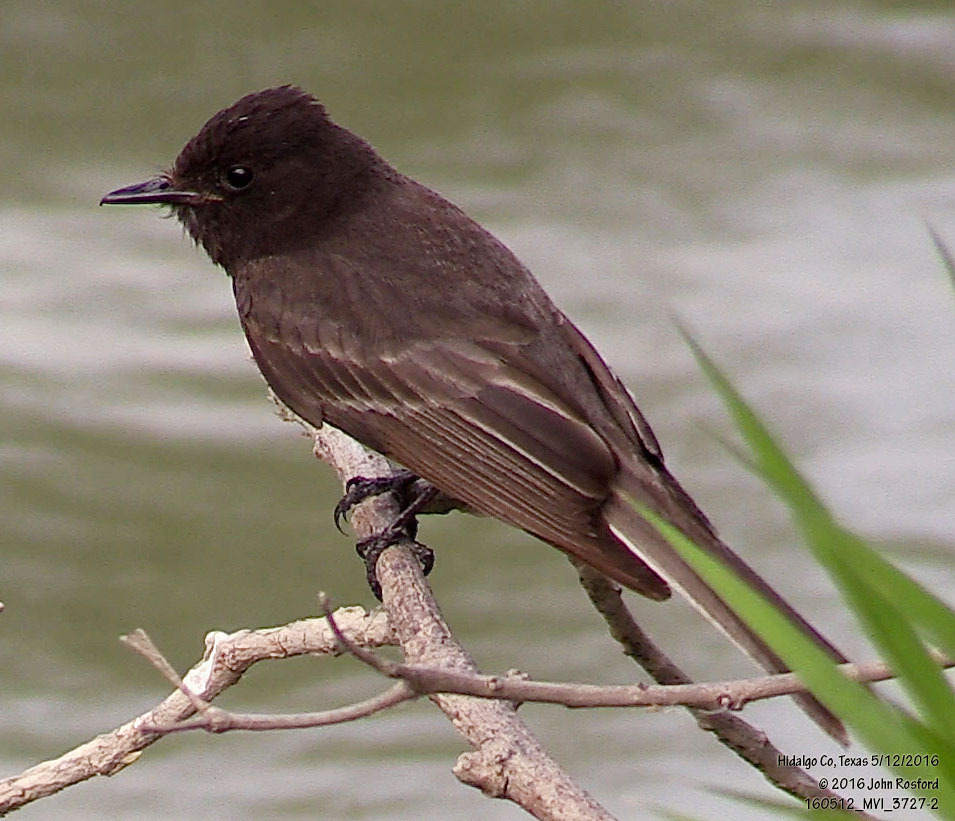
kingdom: Animalia
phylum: Chordata
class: Aves
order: Passeriformes
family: Tyrannidae
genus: Sayornis
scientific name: Sayornis nigricans
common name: Black phoebe
